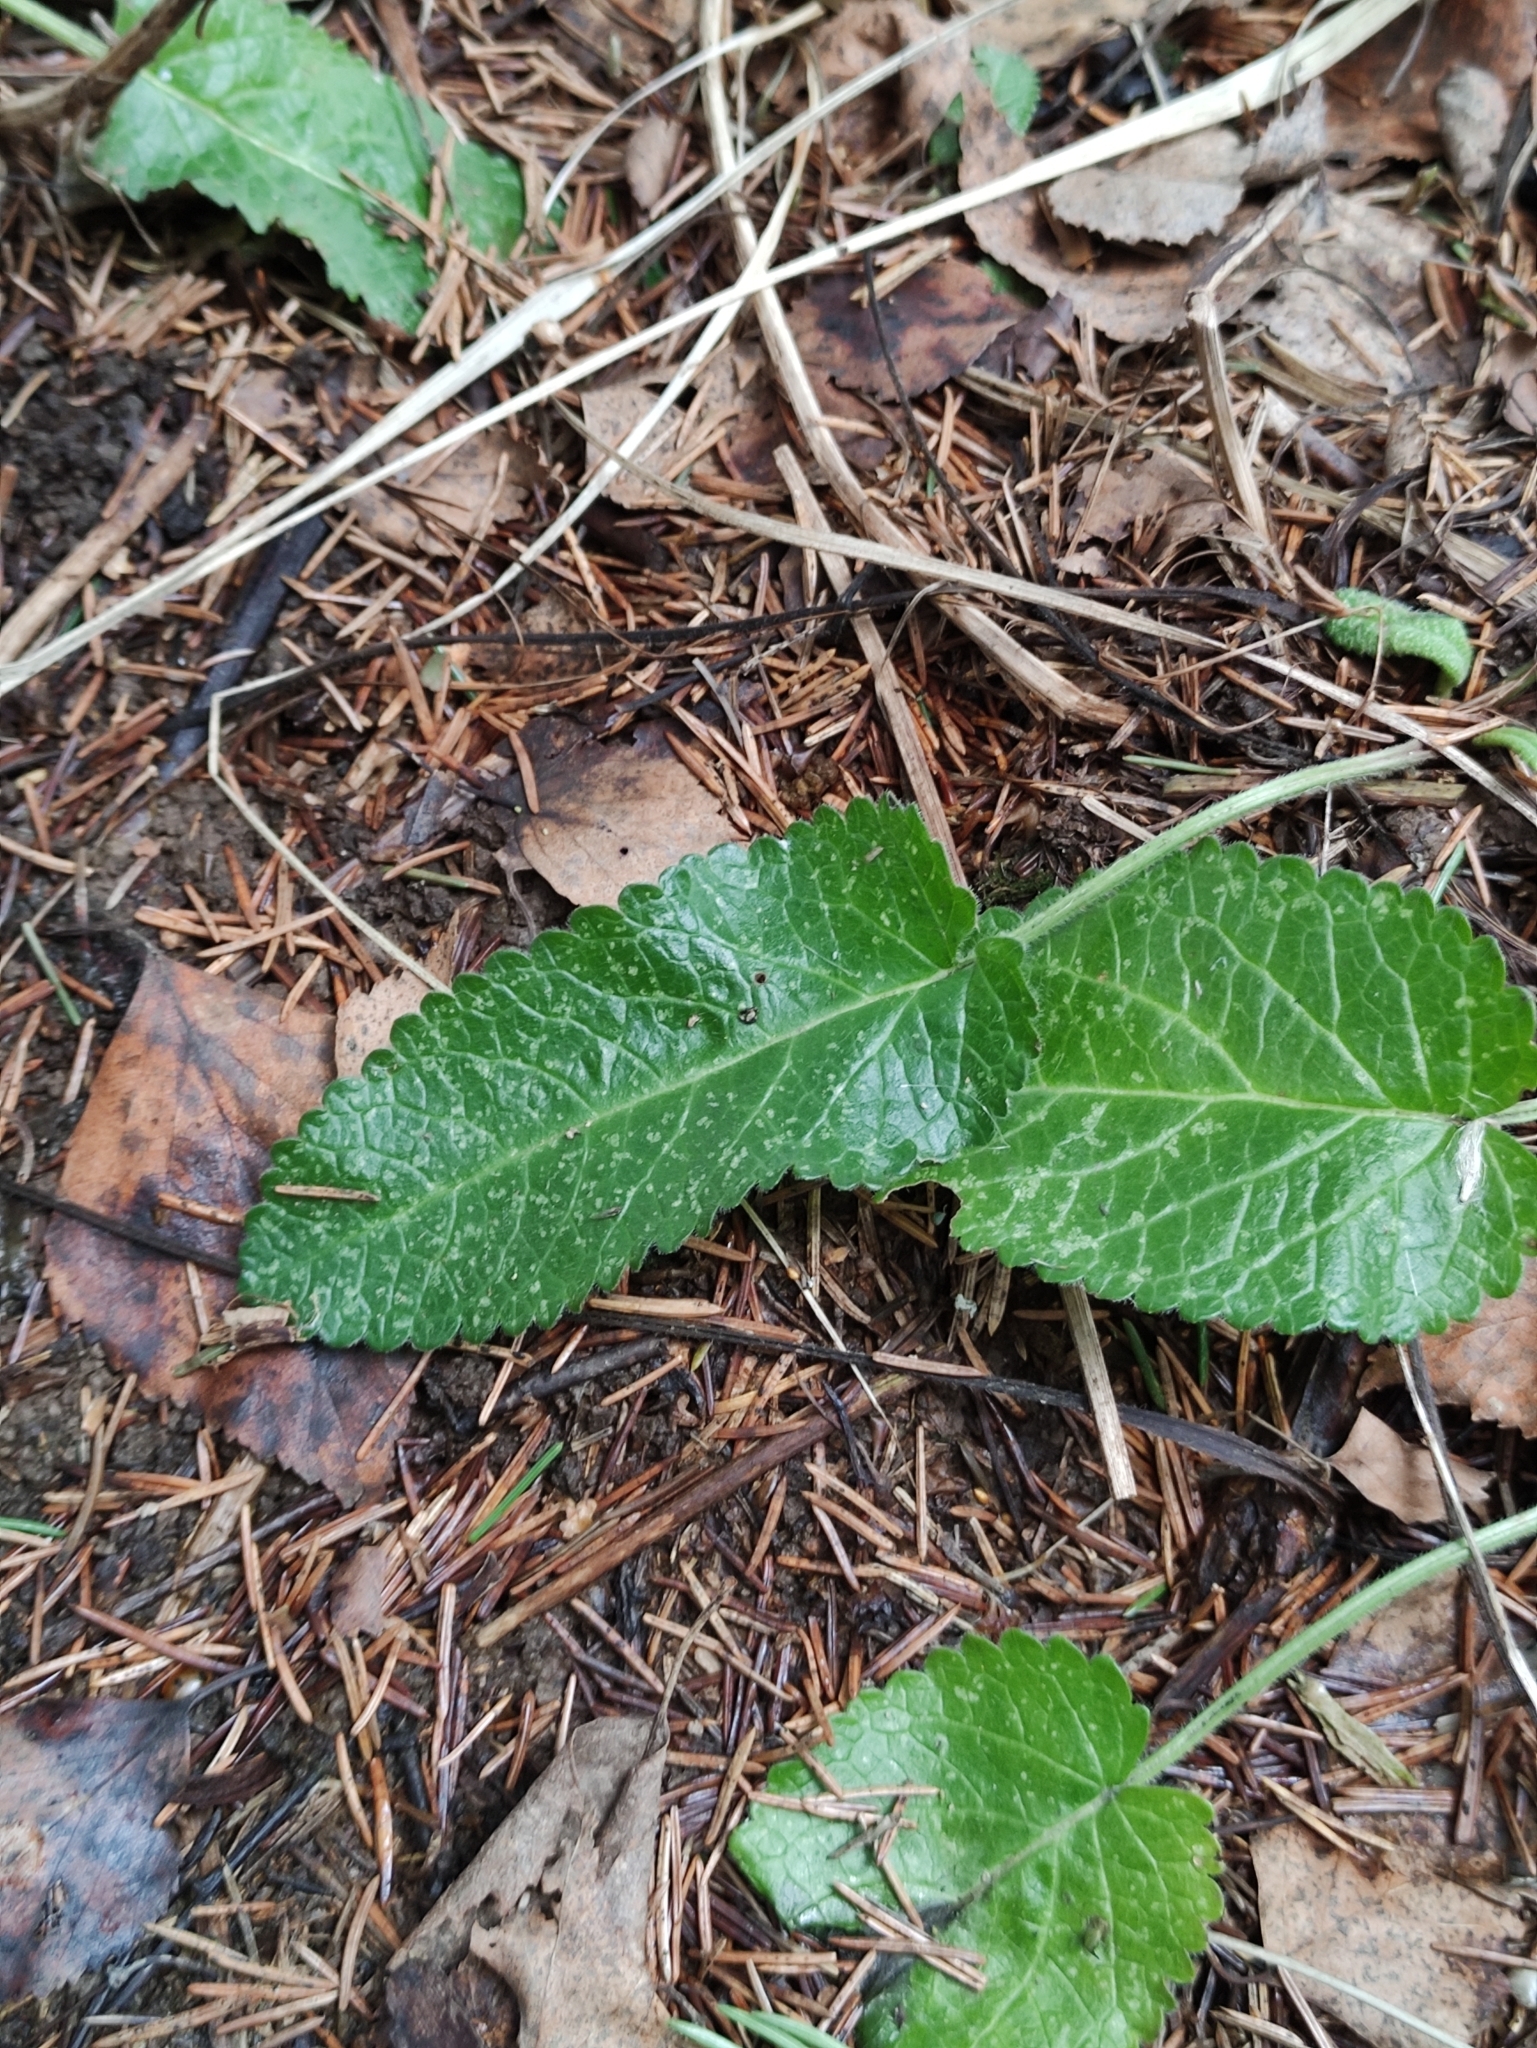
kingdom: Plantae
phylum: Tracheophyta
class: Magnoliopsida
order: Lamiales
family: Lamiaceae
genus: Betonica
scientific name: Betonica officinalis
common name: Bishop's-wort
